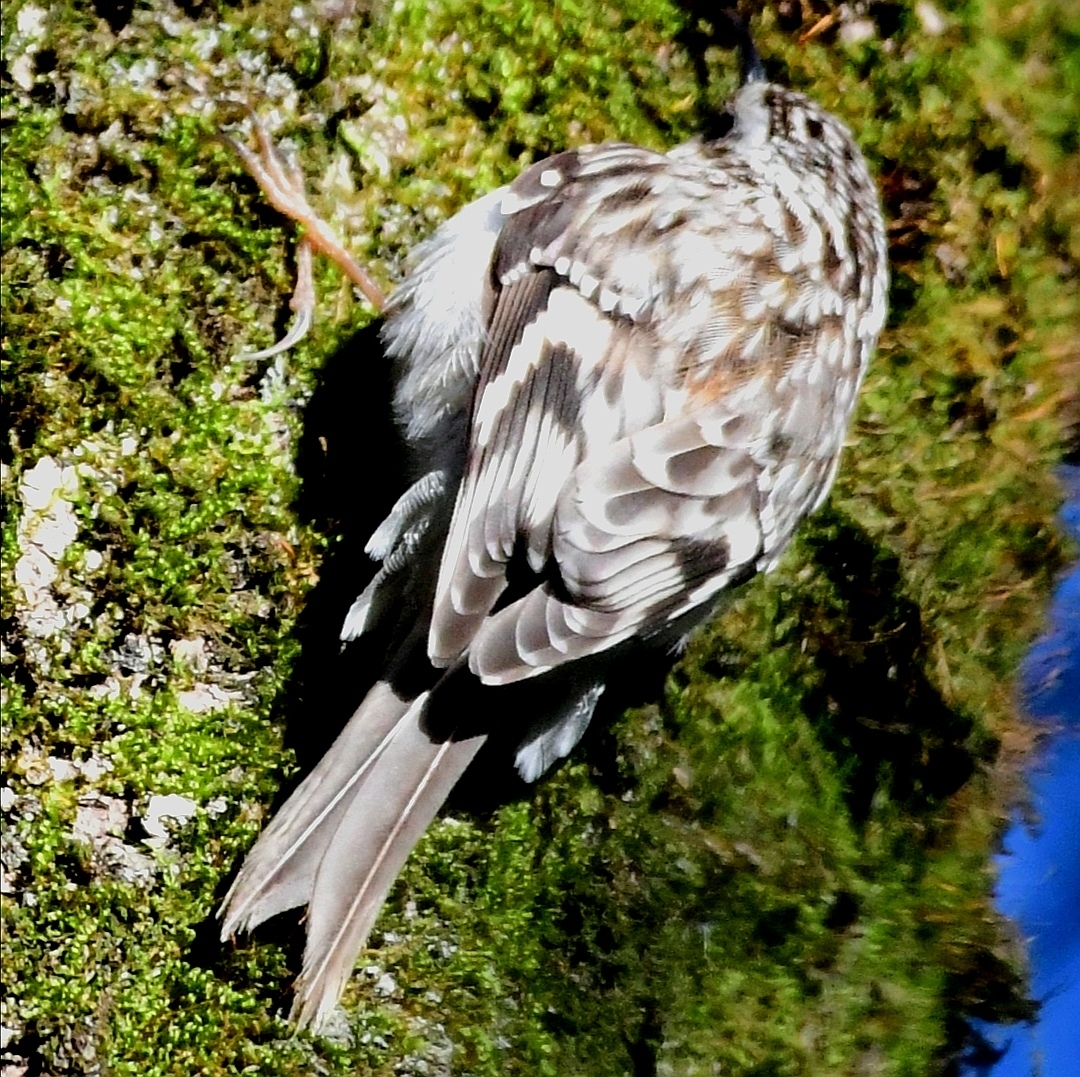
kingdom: Animalia
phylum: Chordata
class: Aves
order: Passeriformes
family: Certhiidae
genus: Certhia
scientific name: Certhia americana
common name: Brown creeper
